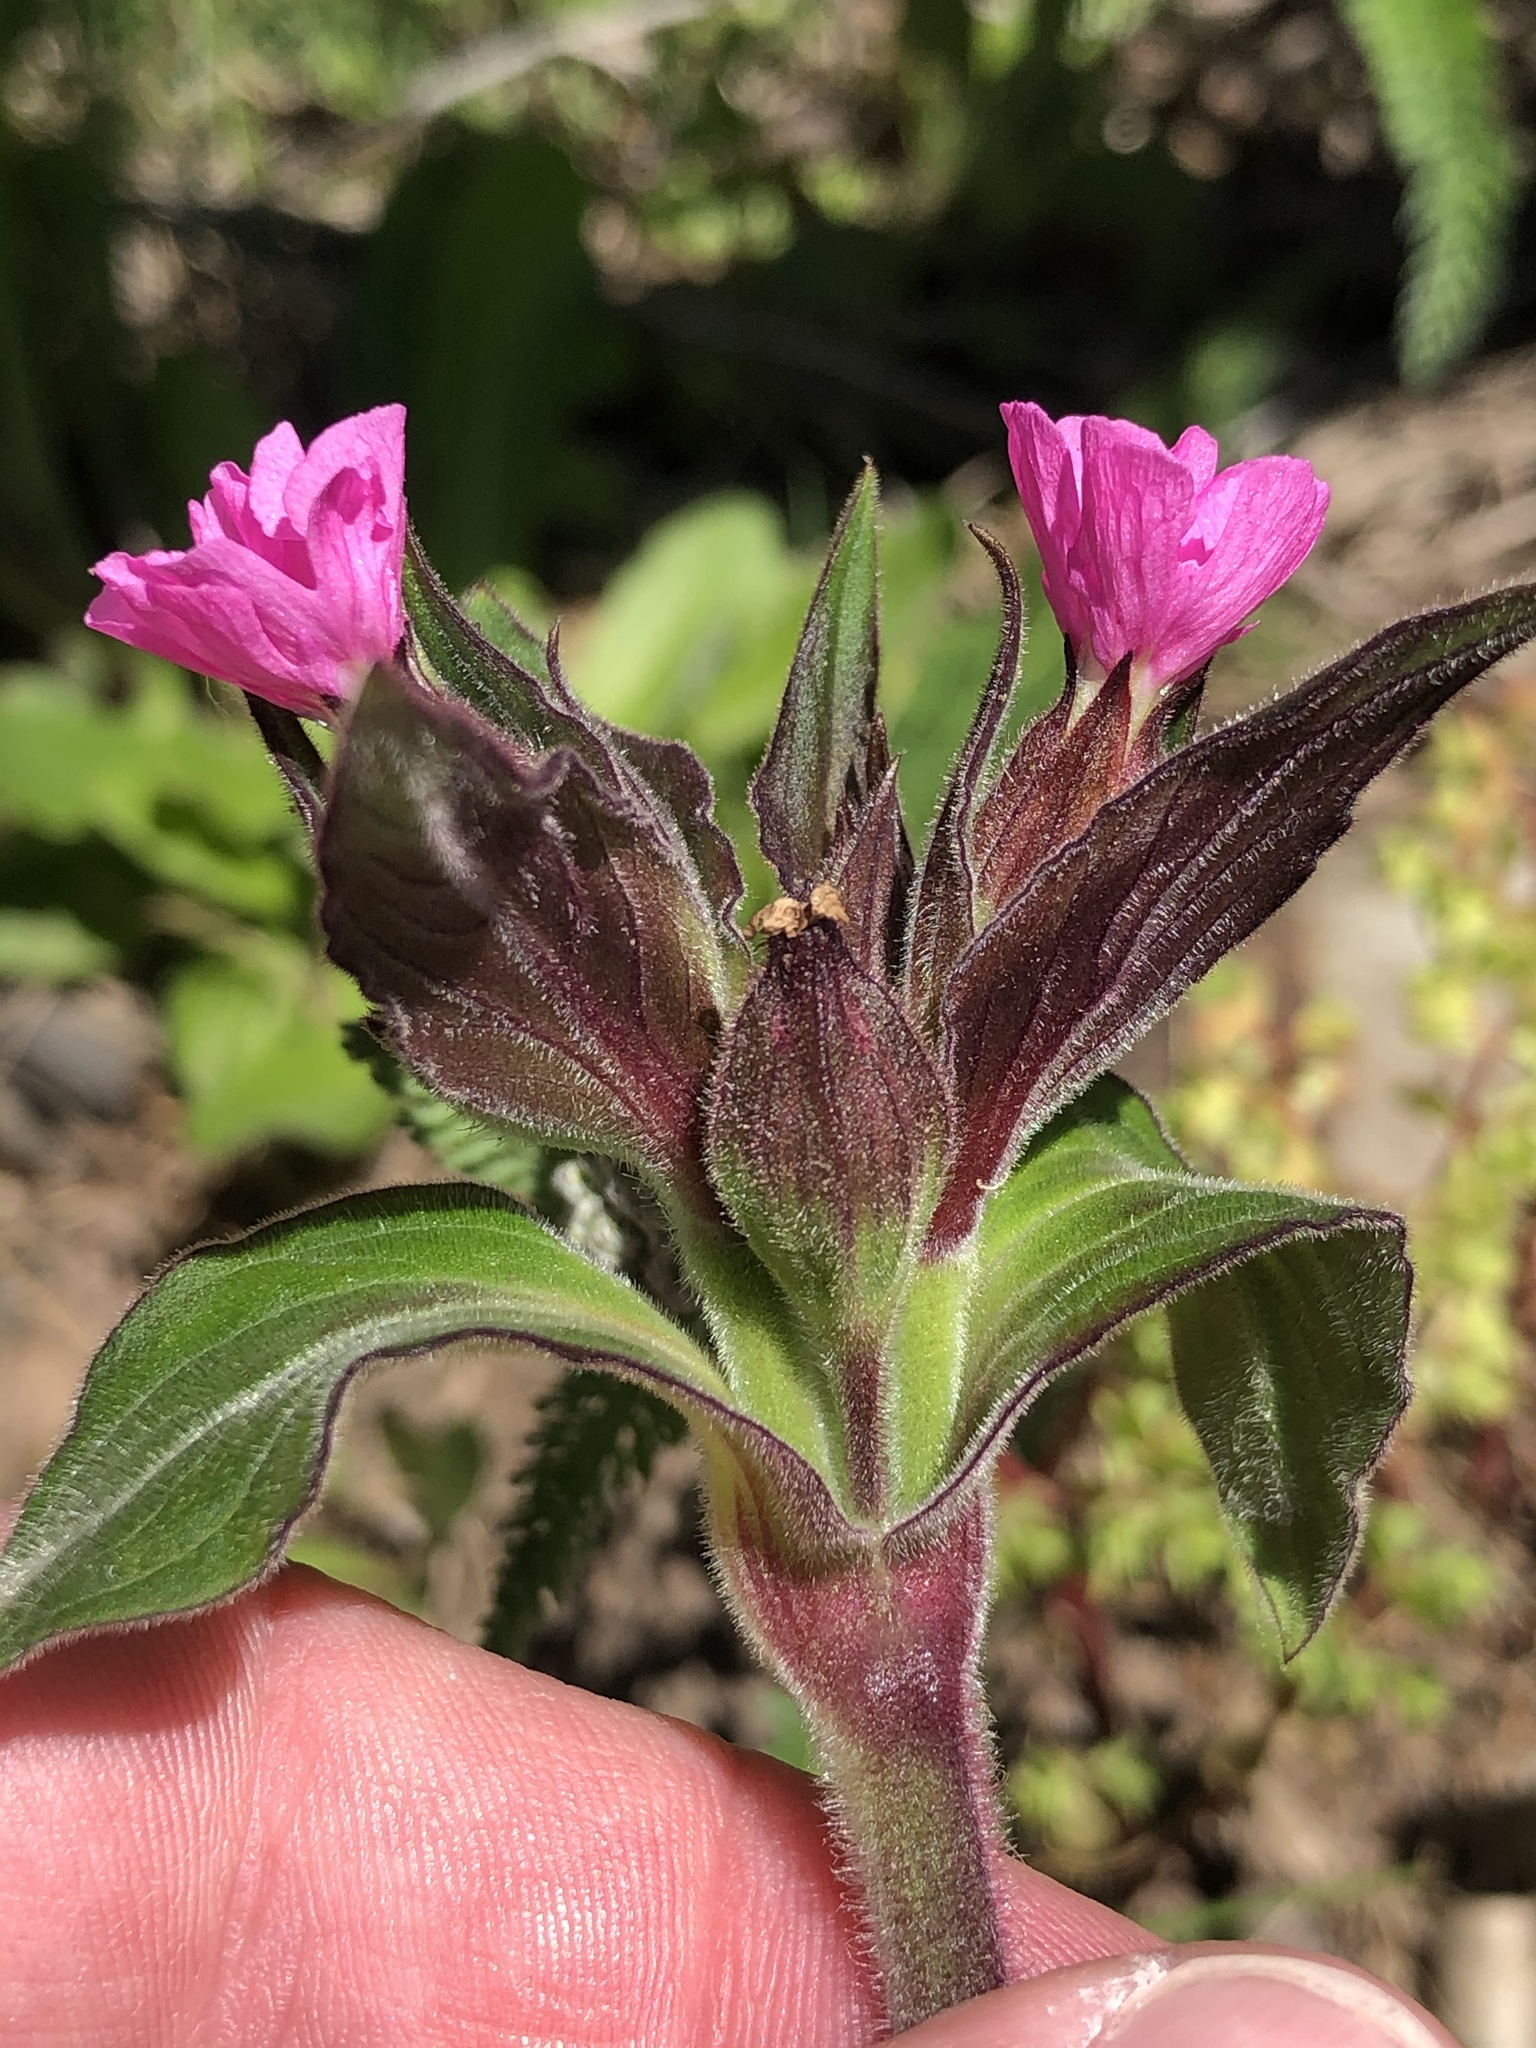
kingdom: Plantae
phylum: Tracheophyta
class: Magnoliopsida
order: Caryophyllales
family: Caryophyllaceae
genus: Silene
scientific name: Silene dioica
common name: Red campion
